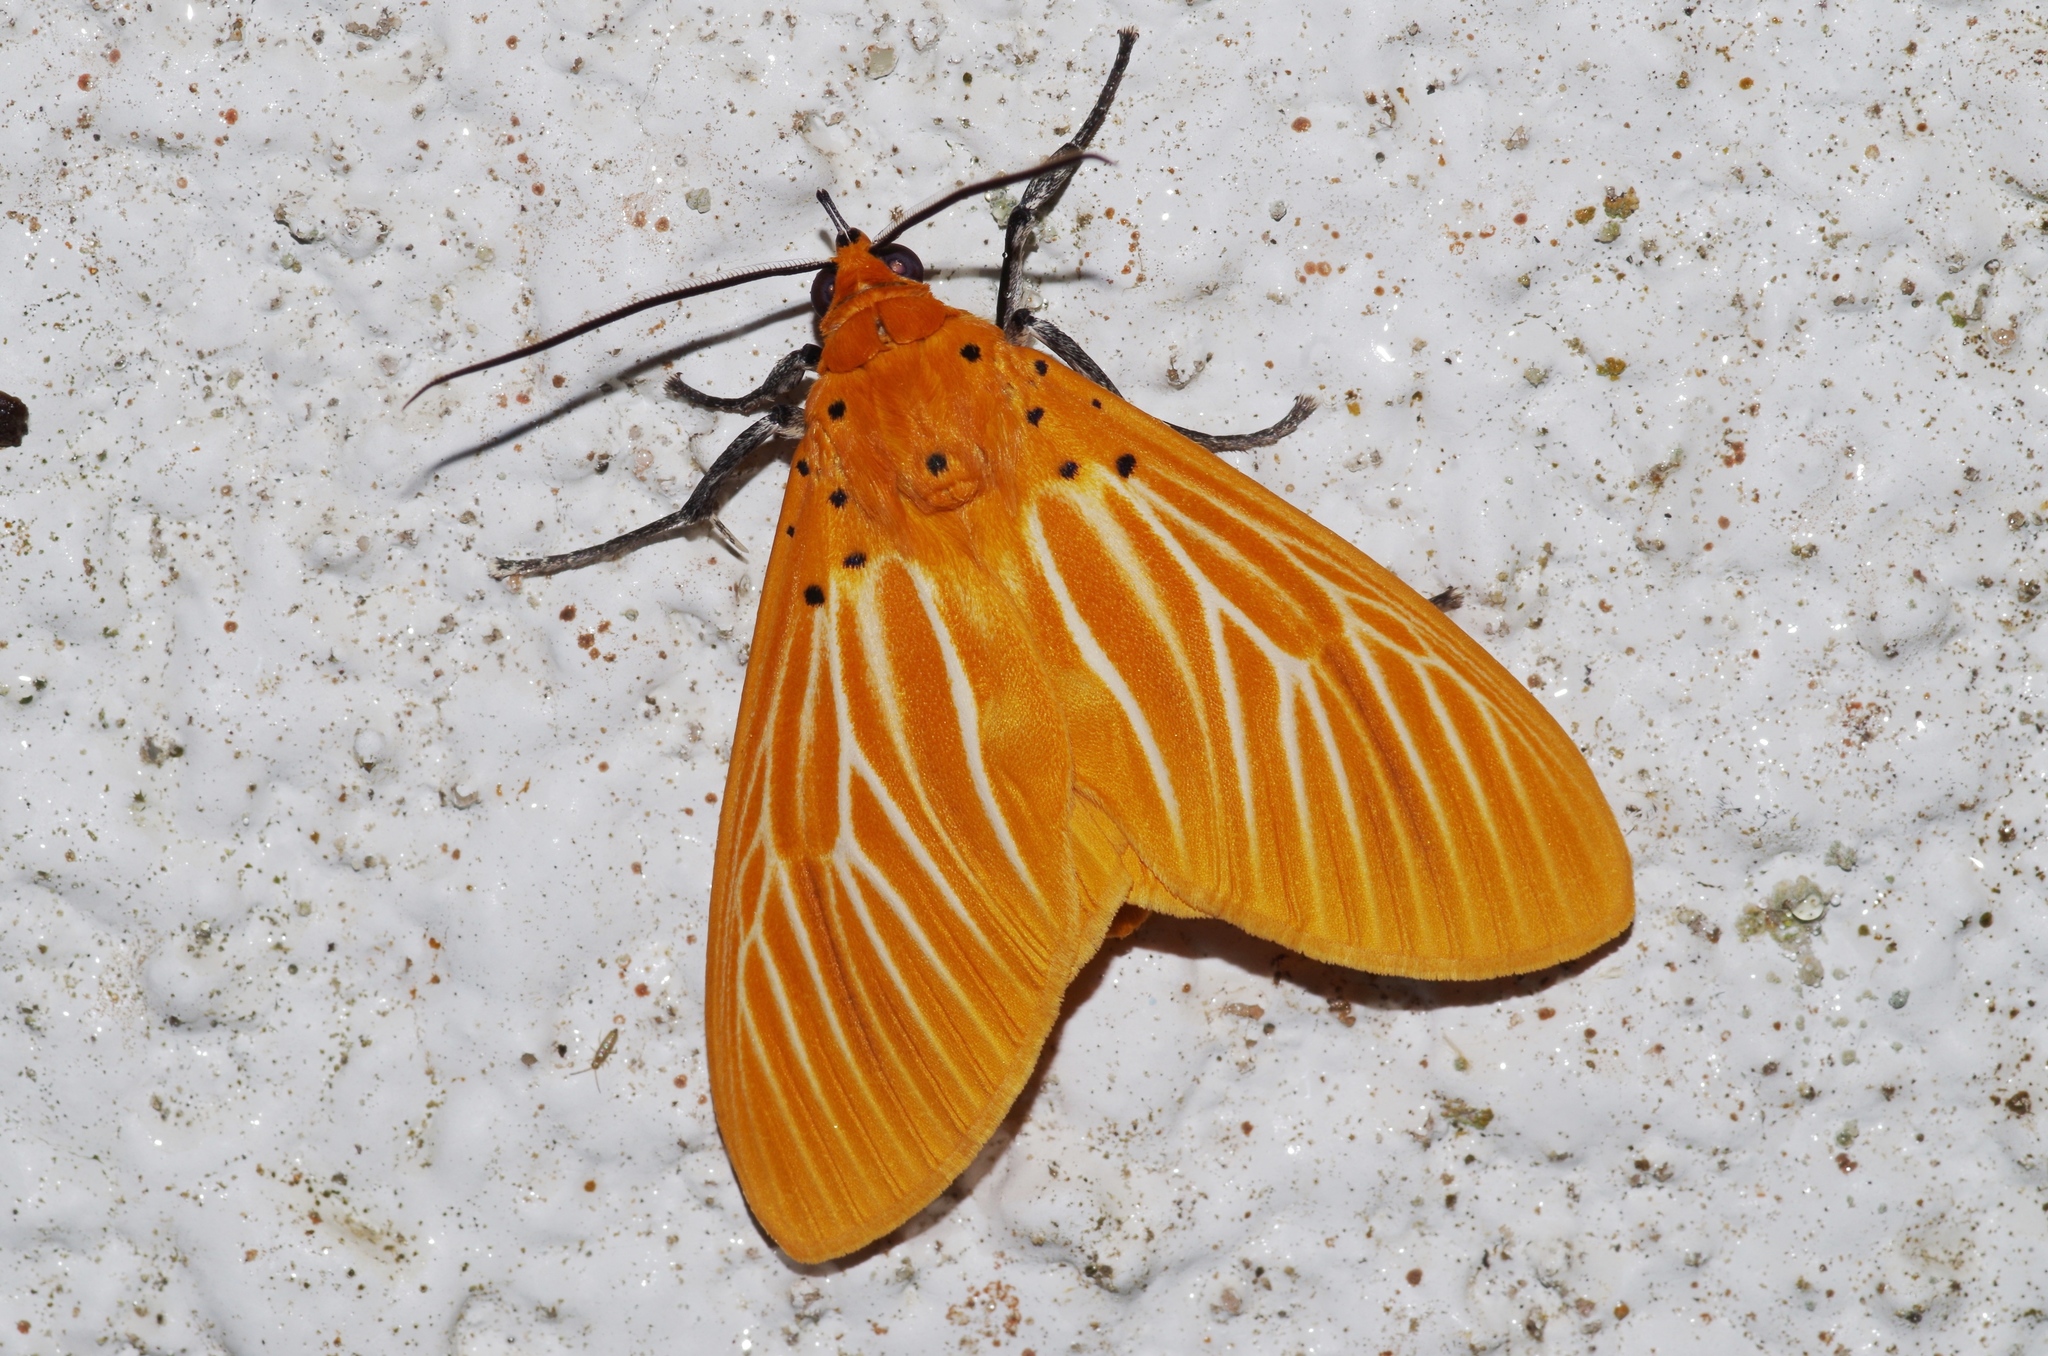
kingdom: Animalia
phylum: Arthropoda
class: Insecta
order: Lepidoptera
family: Erebidae
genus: Asota
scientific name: Asota egens
